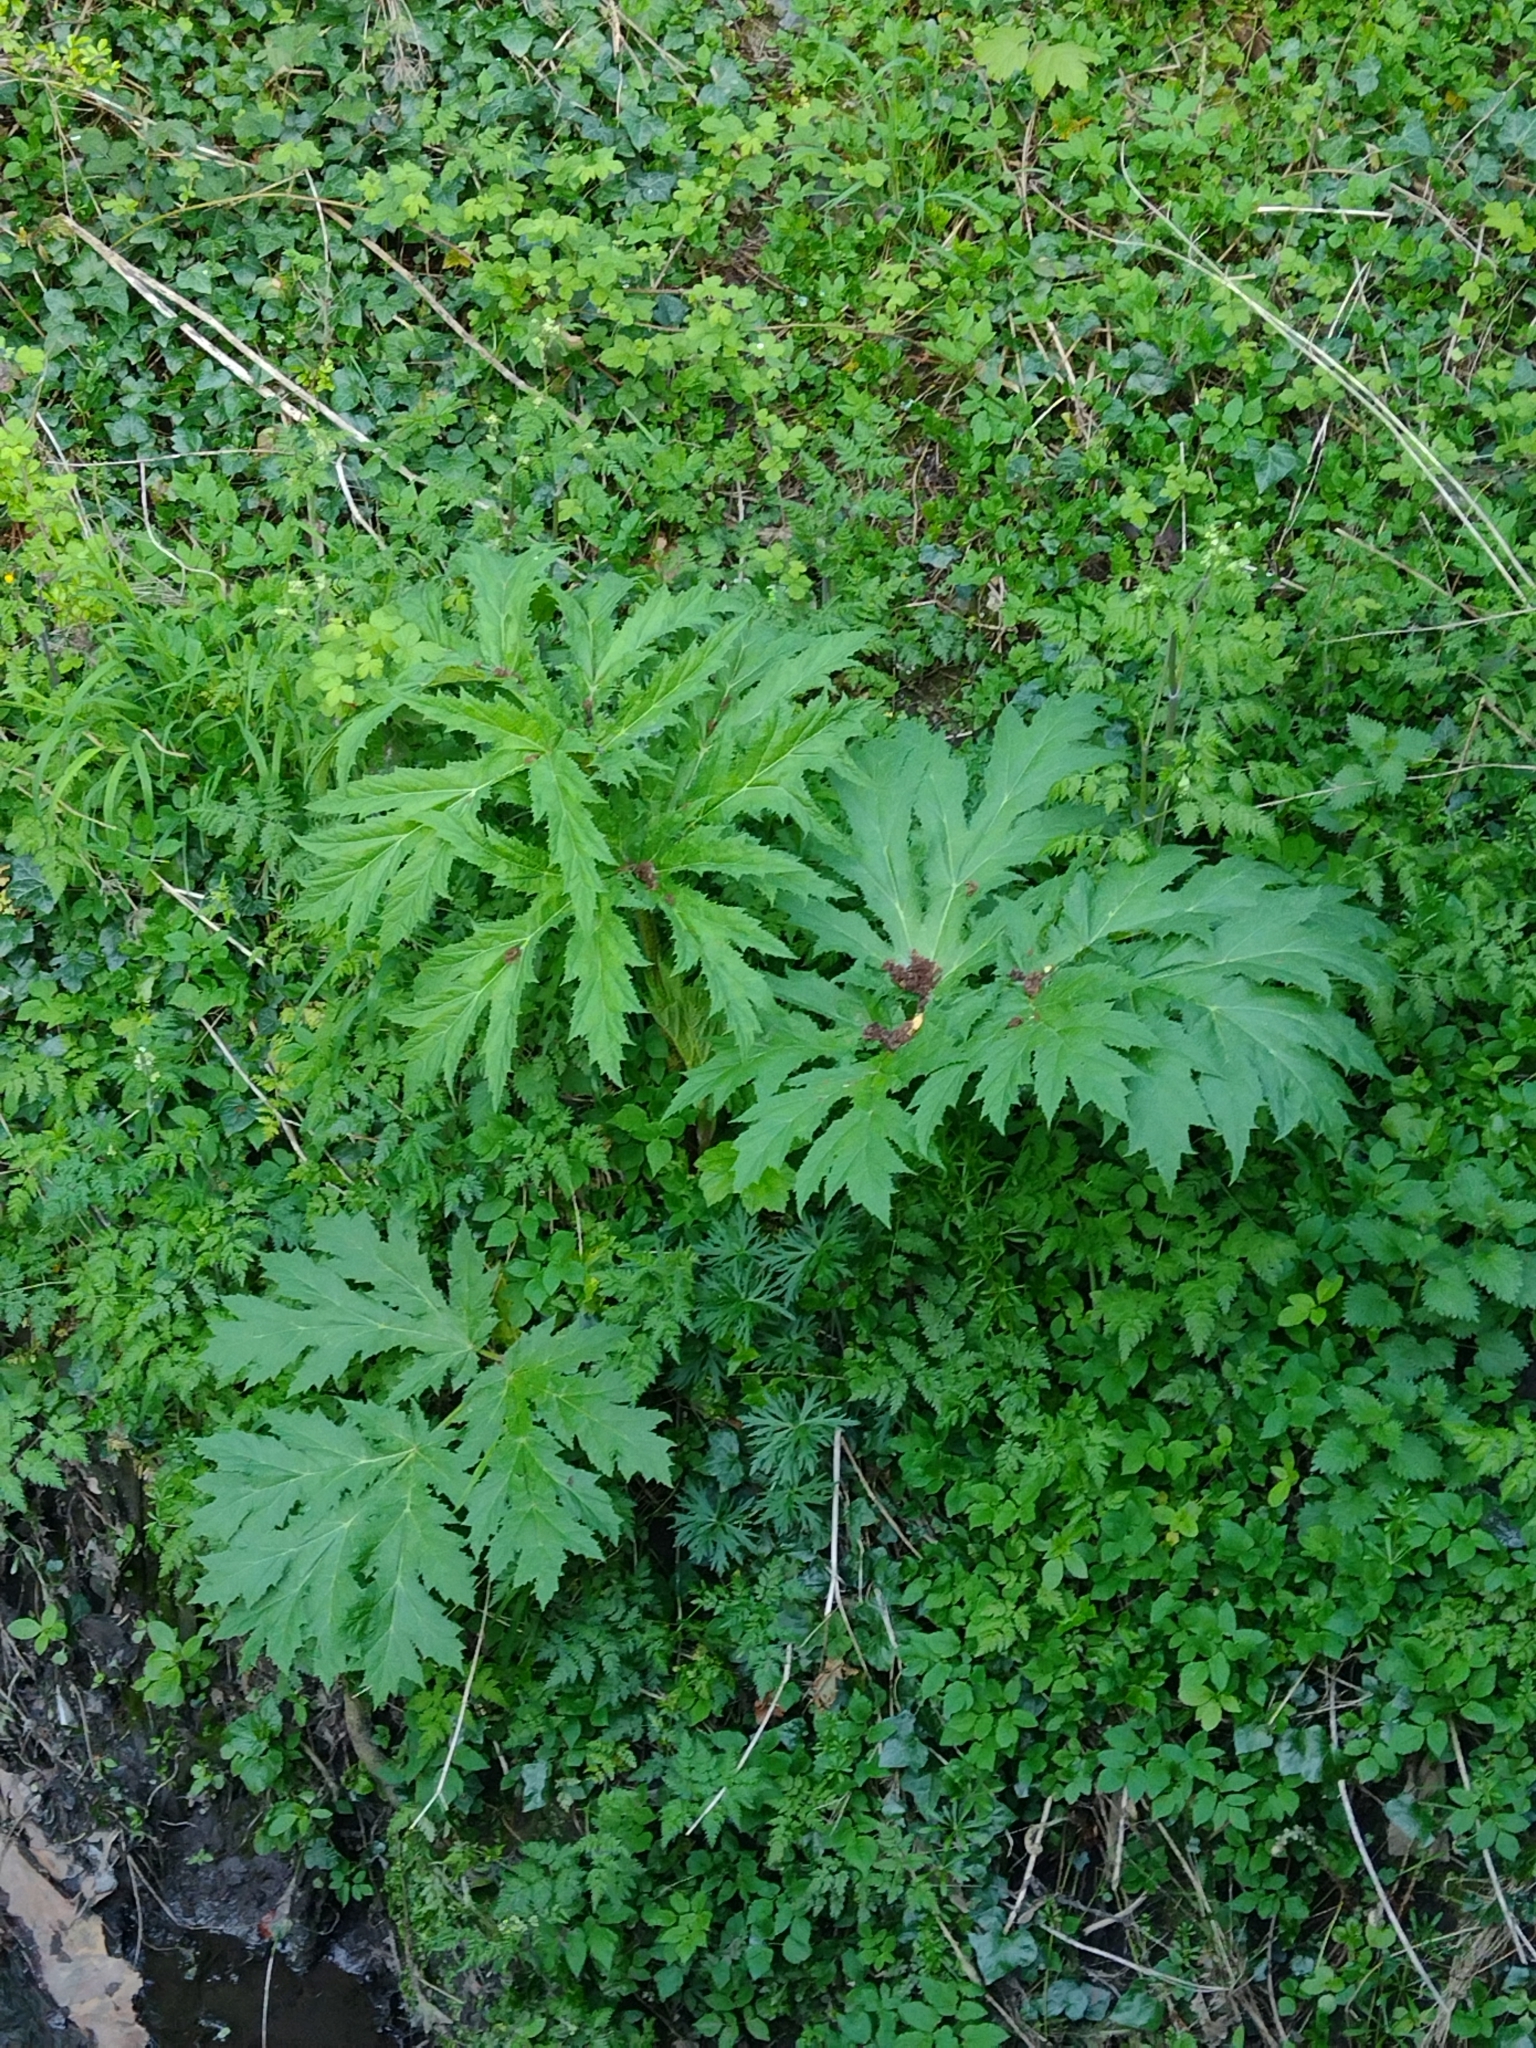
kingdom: Plantae
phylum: Tracheophyta
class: Magnoliopsida
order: Apiales
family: Apiaceae
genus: Heracleum
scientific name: Heracleum mantegazzianum
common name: Giant hogweed
